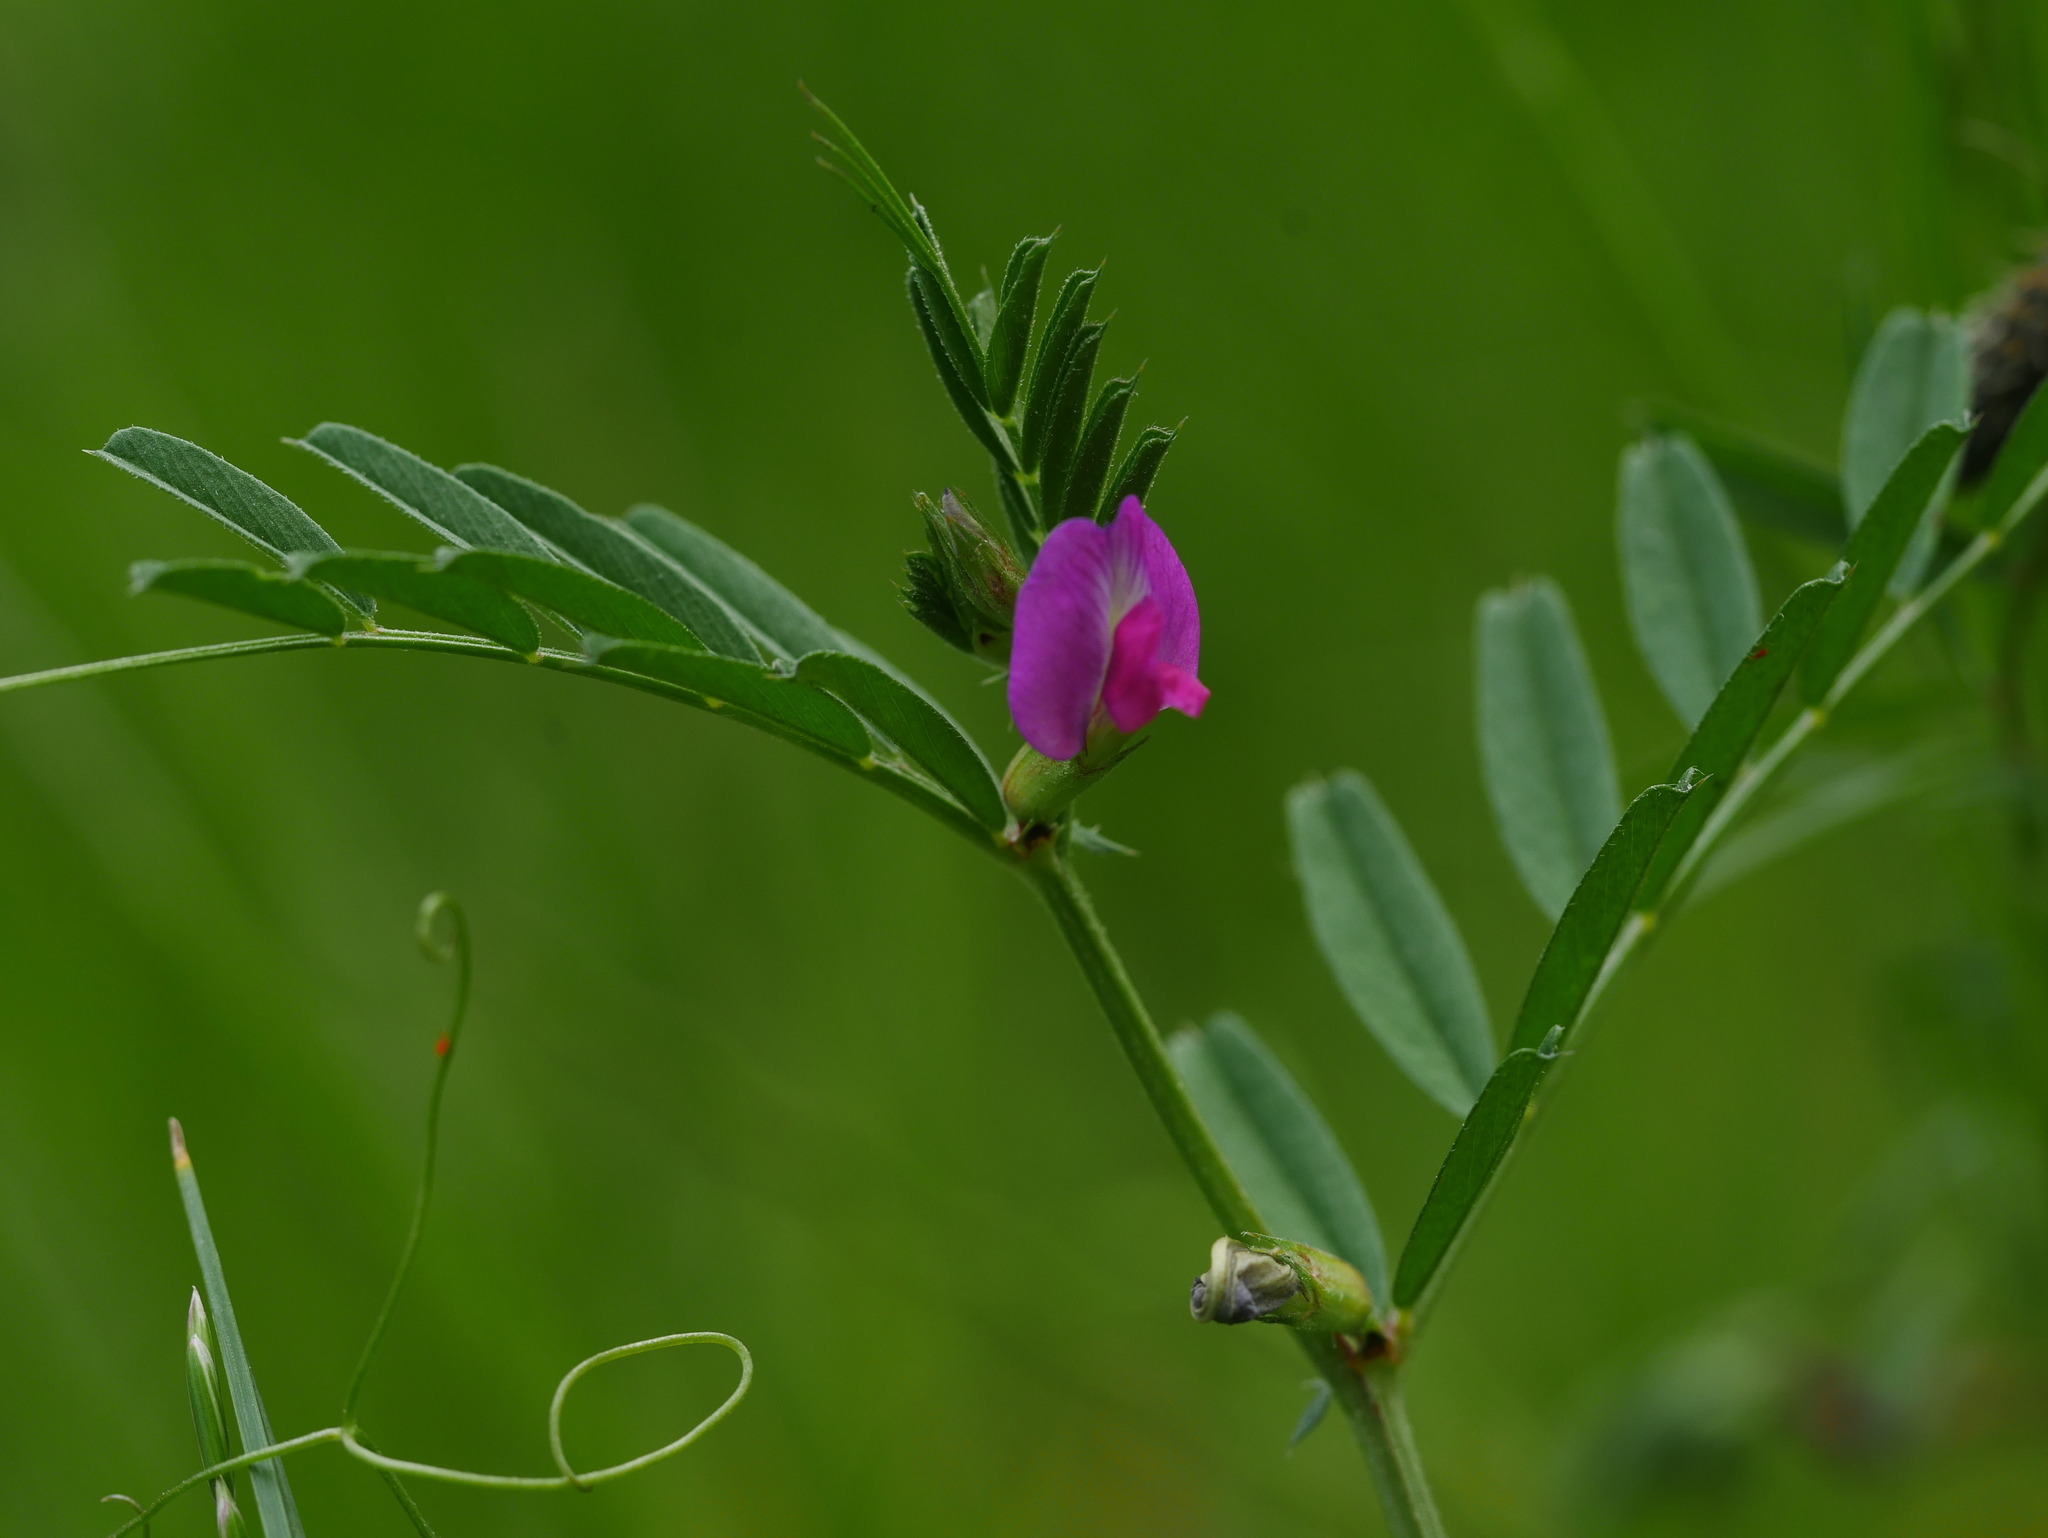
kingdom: Plantae
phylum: Tracheophyta
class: Magnoliopsida
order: Fabales
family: Fabaceae
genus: Vicia
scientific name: Vicia sativa
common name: Garden vetch
